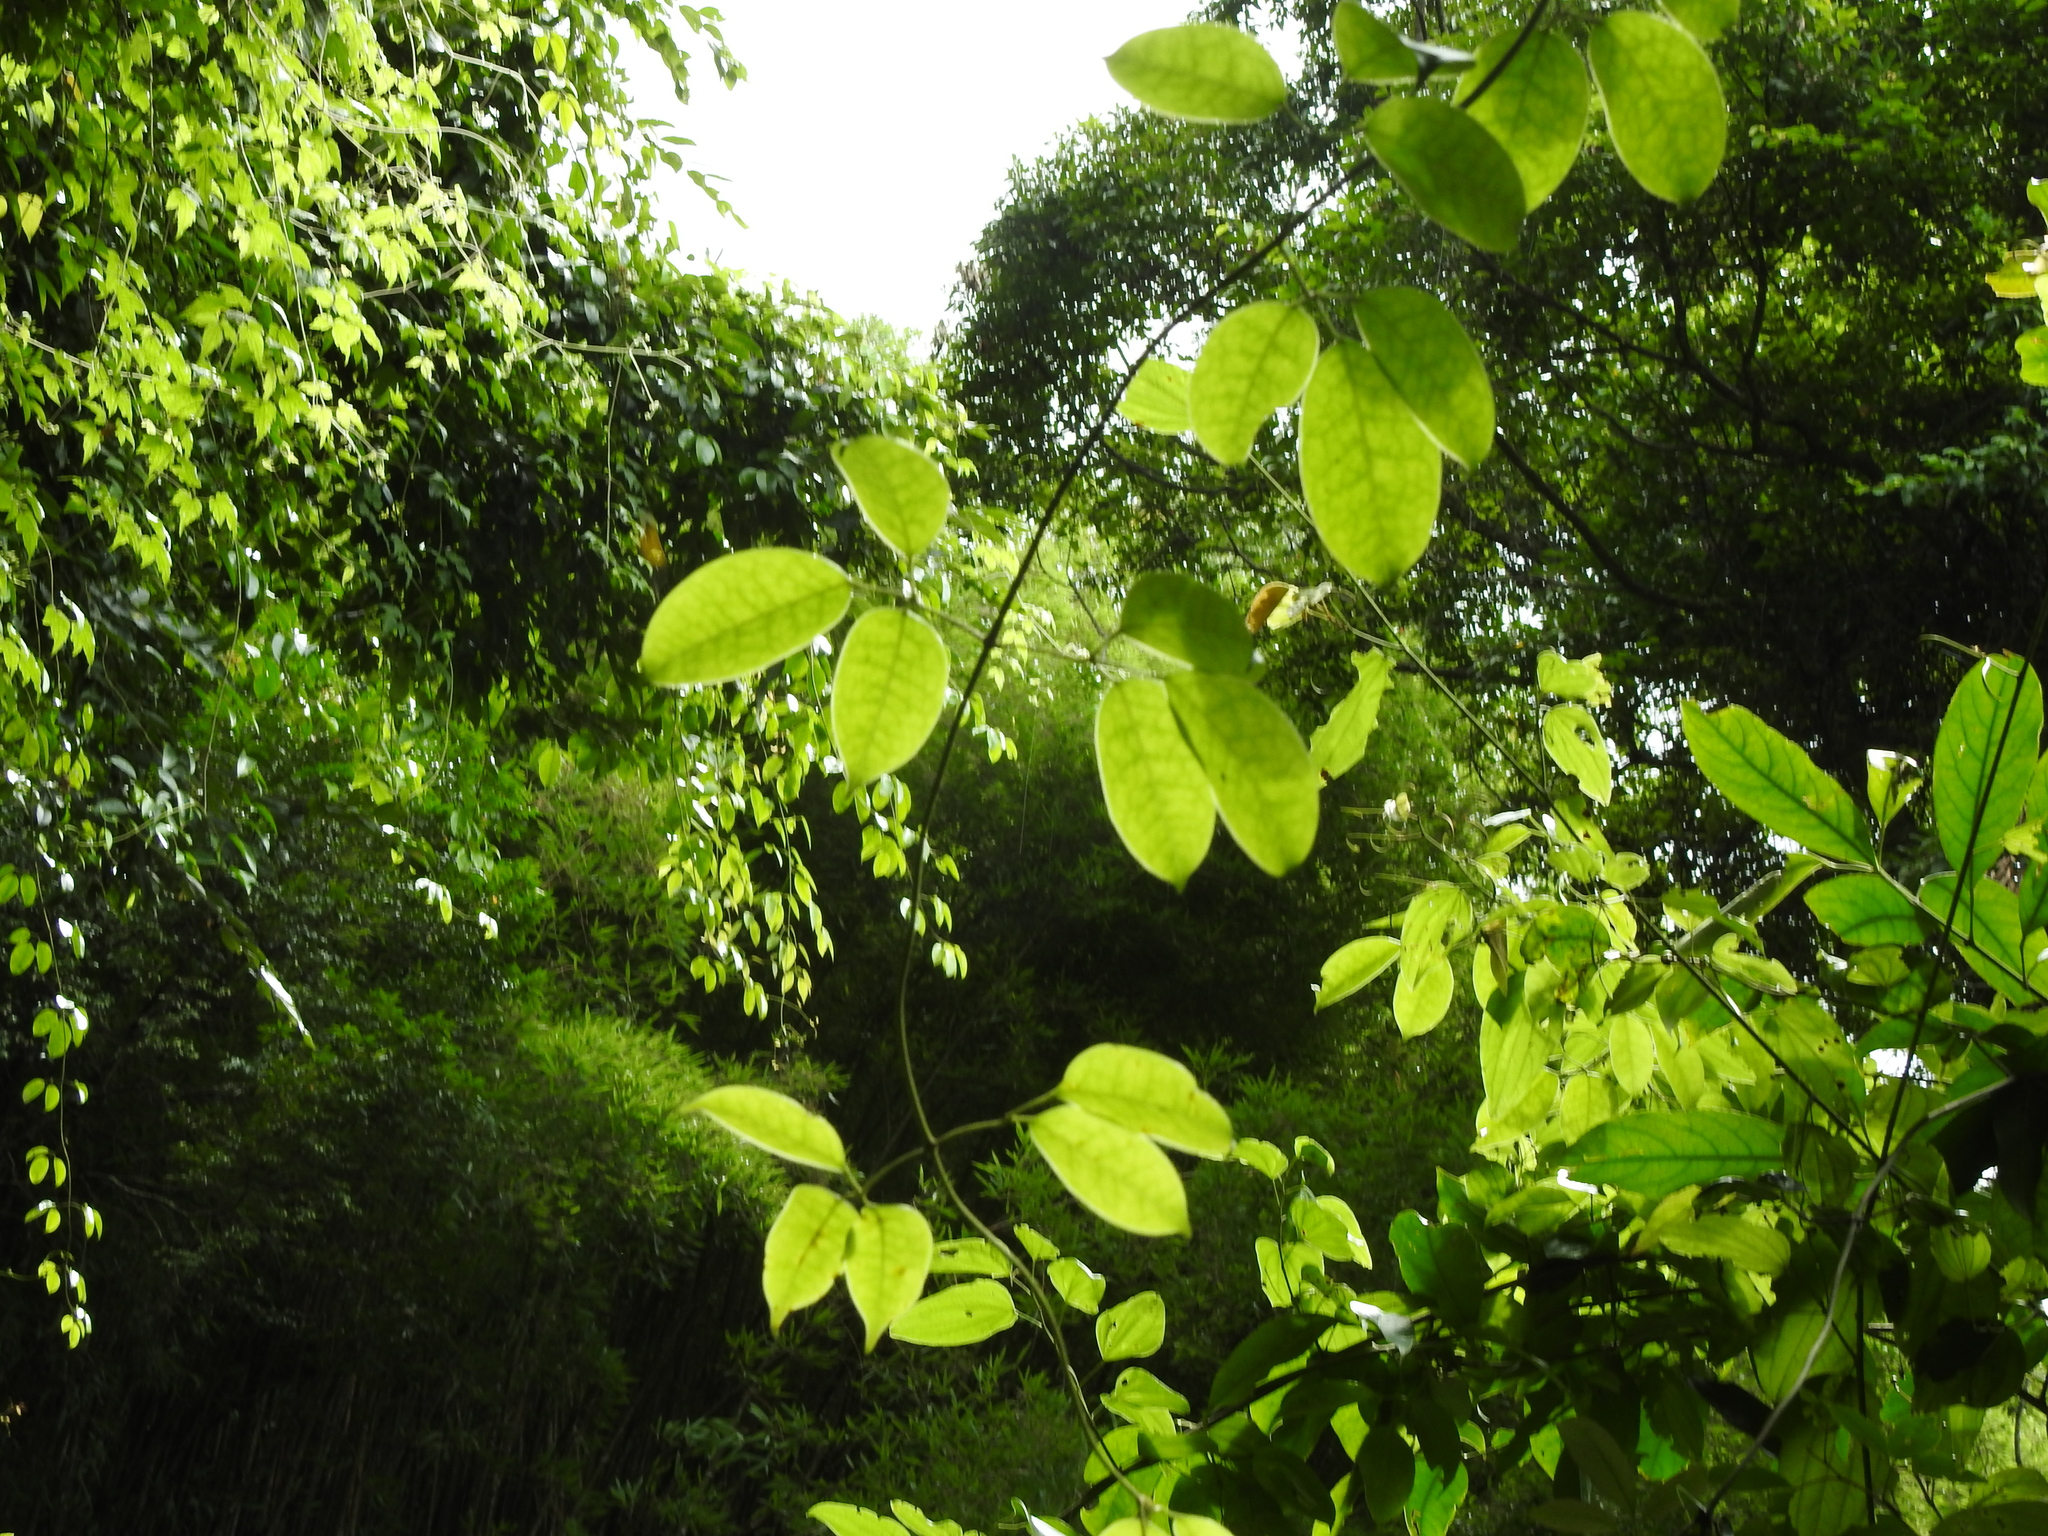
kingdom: Plantae
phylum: Tracheophyta
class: Magnoliopsida
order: Lamiales
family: Oleaceae
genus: Jasminum
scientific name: Jasminum lanceolaria
